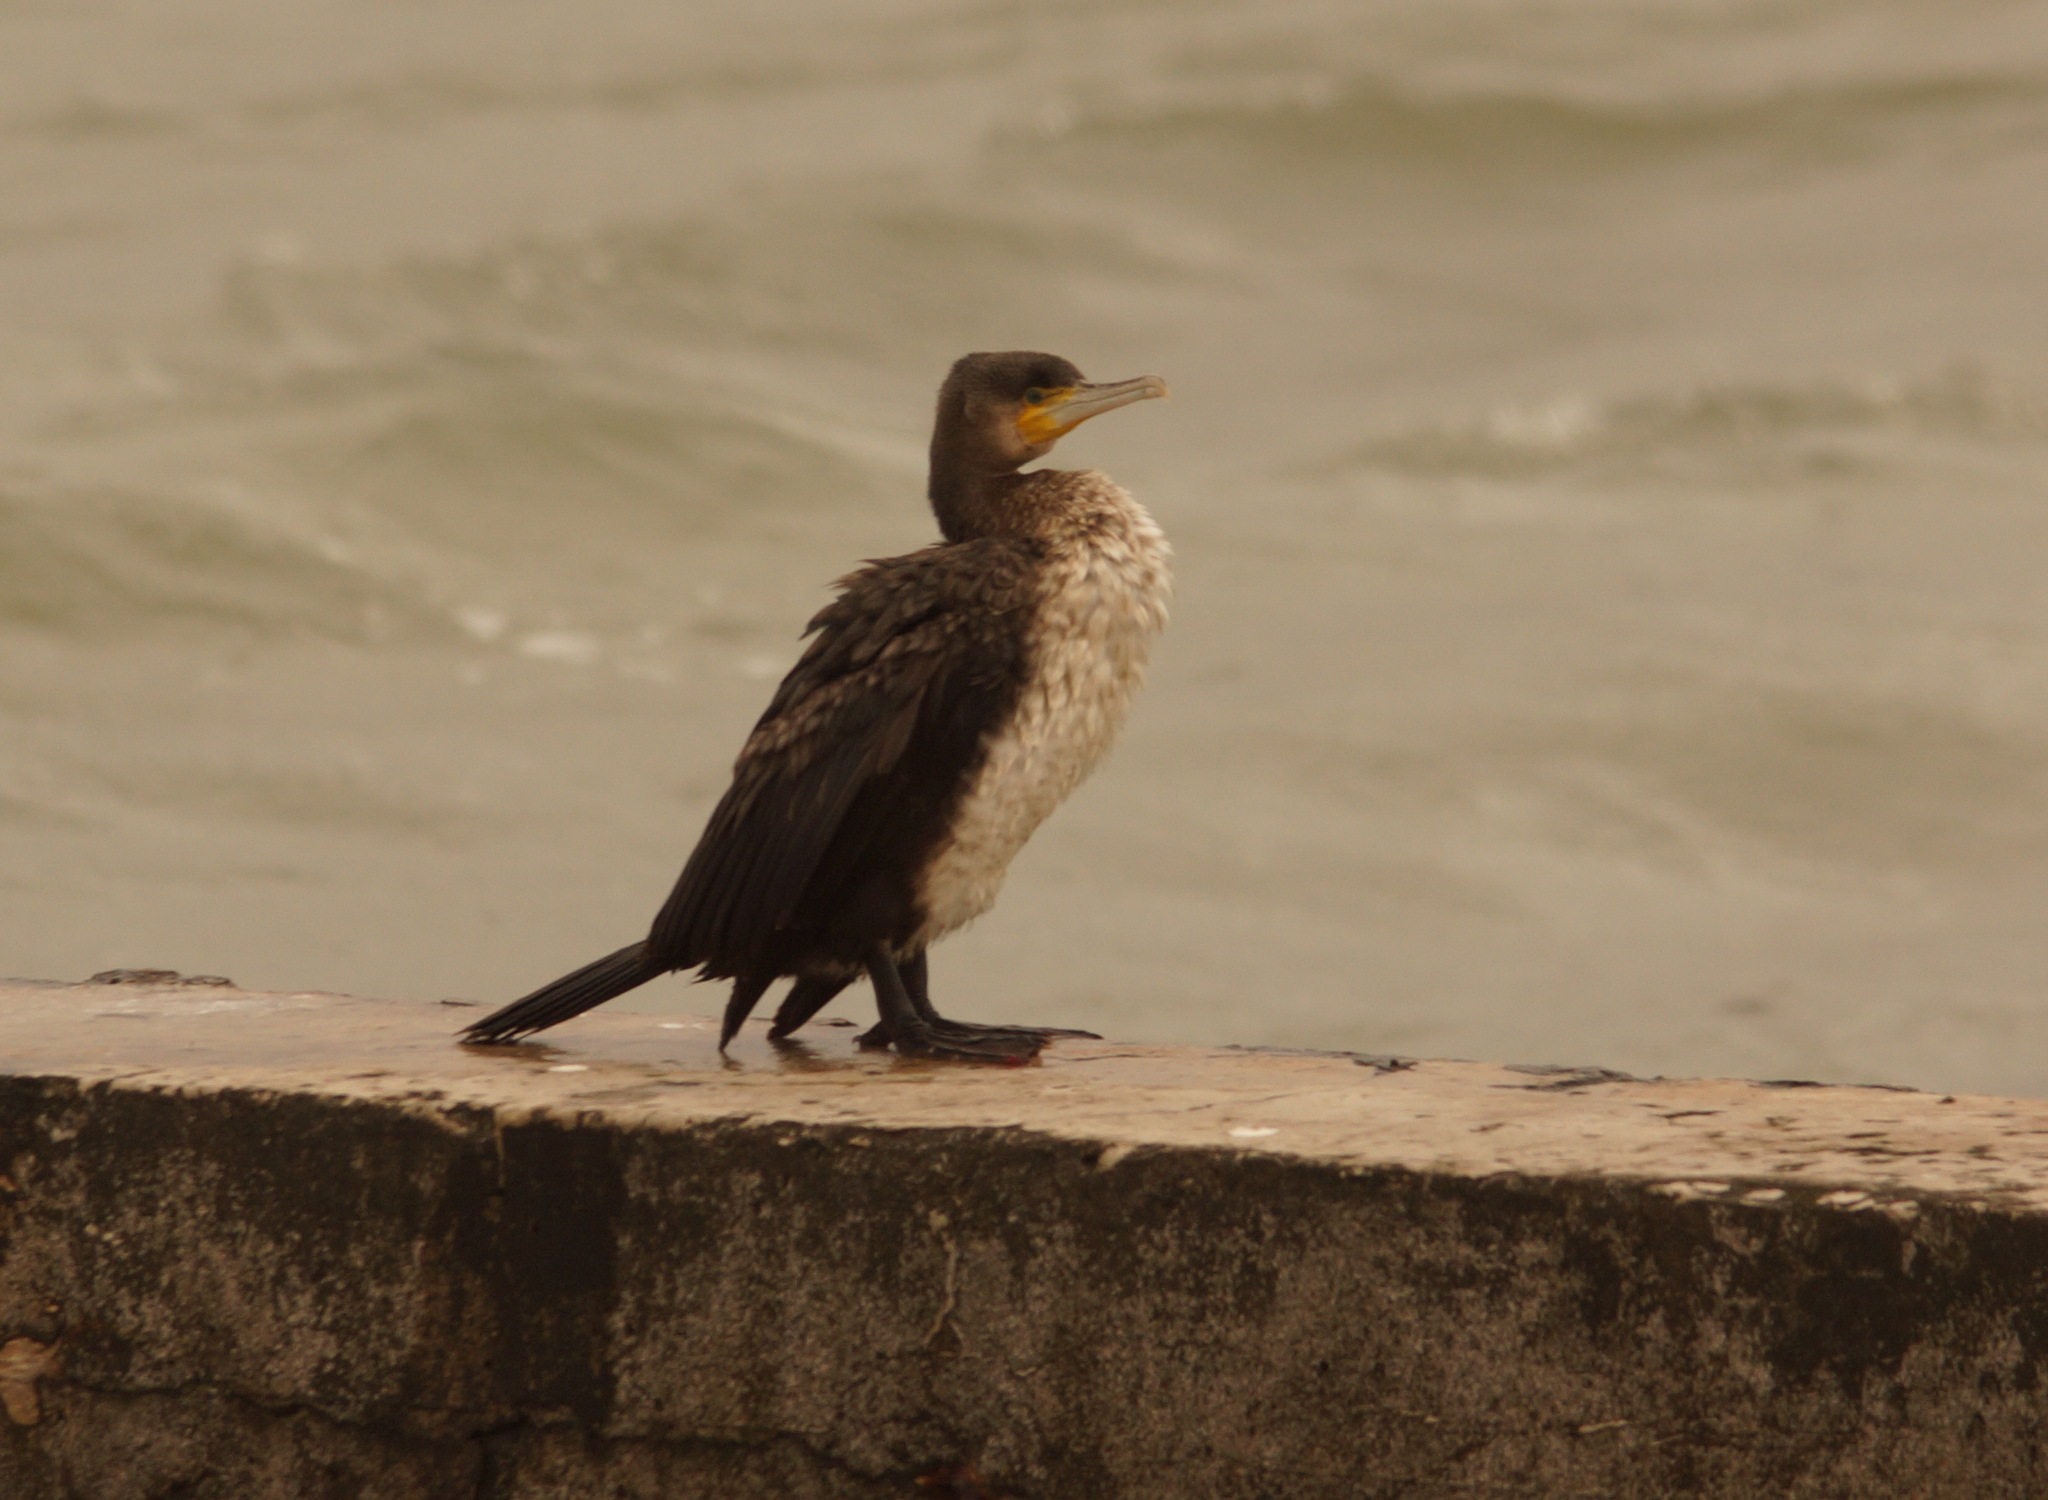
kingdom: Animalia
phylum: Chordata
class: Aves
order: Suliformes
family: Phalacrocoracidae
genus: Phalacrocorax
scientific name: Phalacrocorax carbo
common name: Great cormorant
